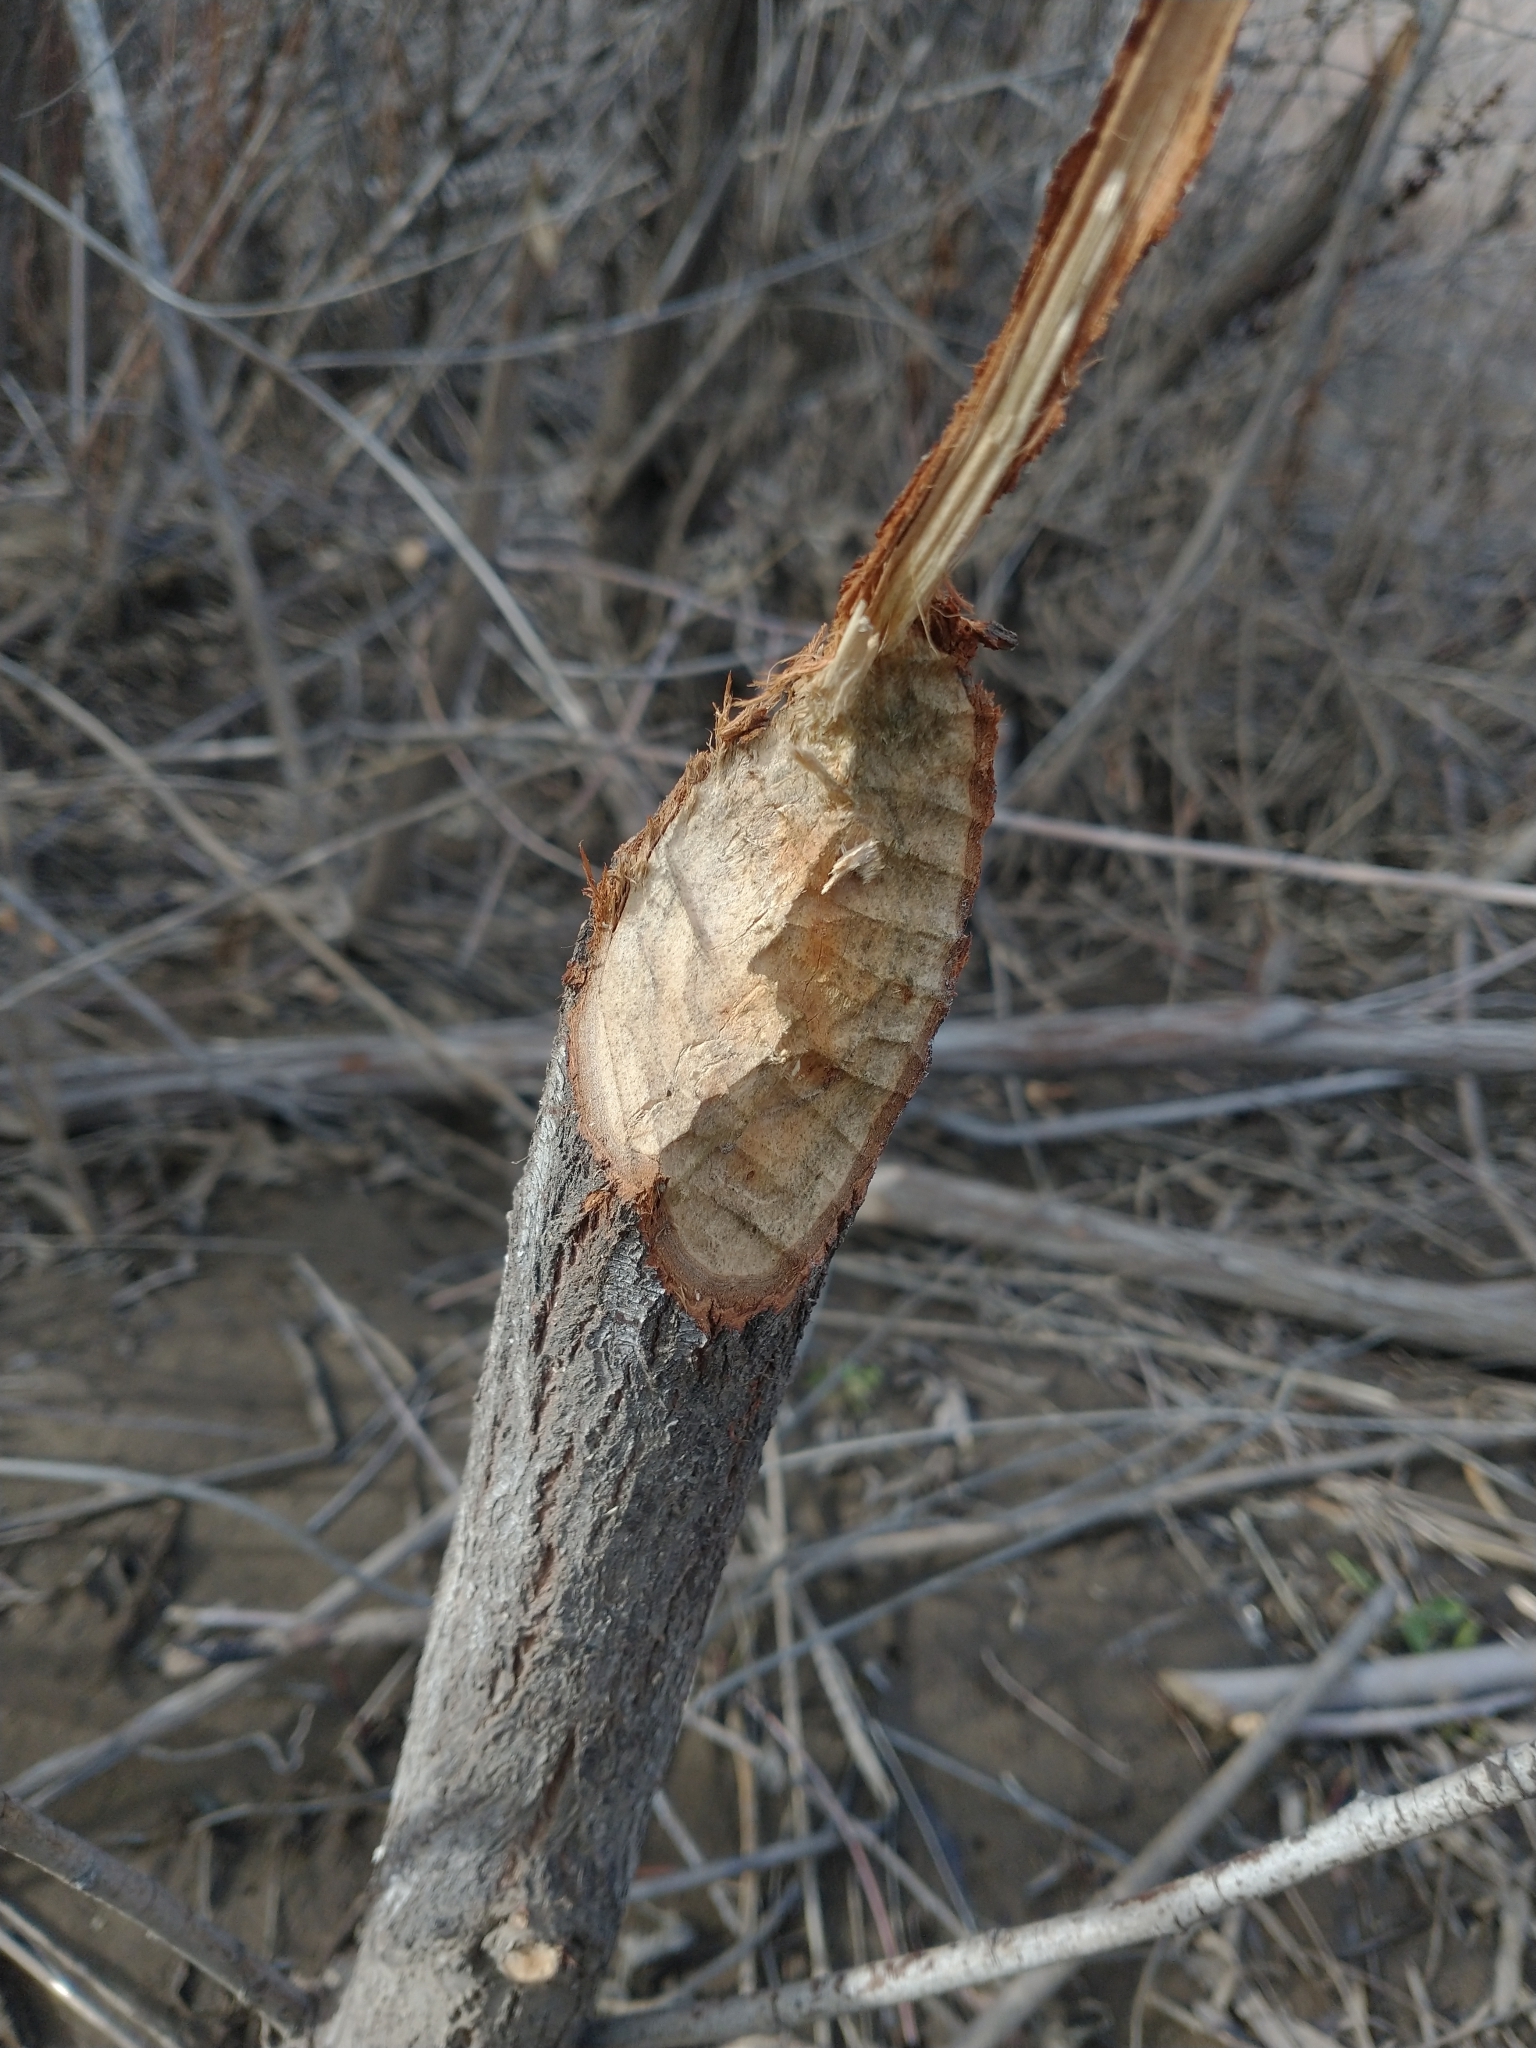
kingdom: Animalia
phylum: Chordata
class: Mammalia
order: Rodentia
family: Castoridae
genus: Castor
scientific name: Castor canadensis
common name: American beaver
